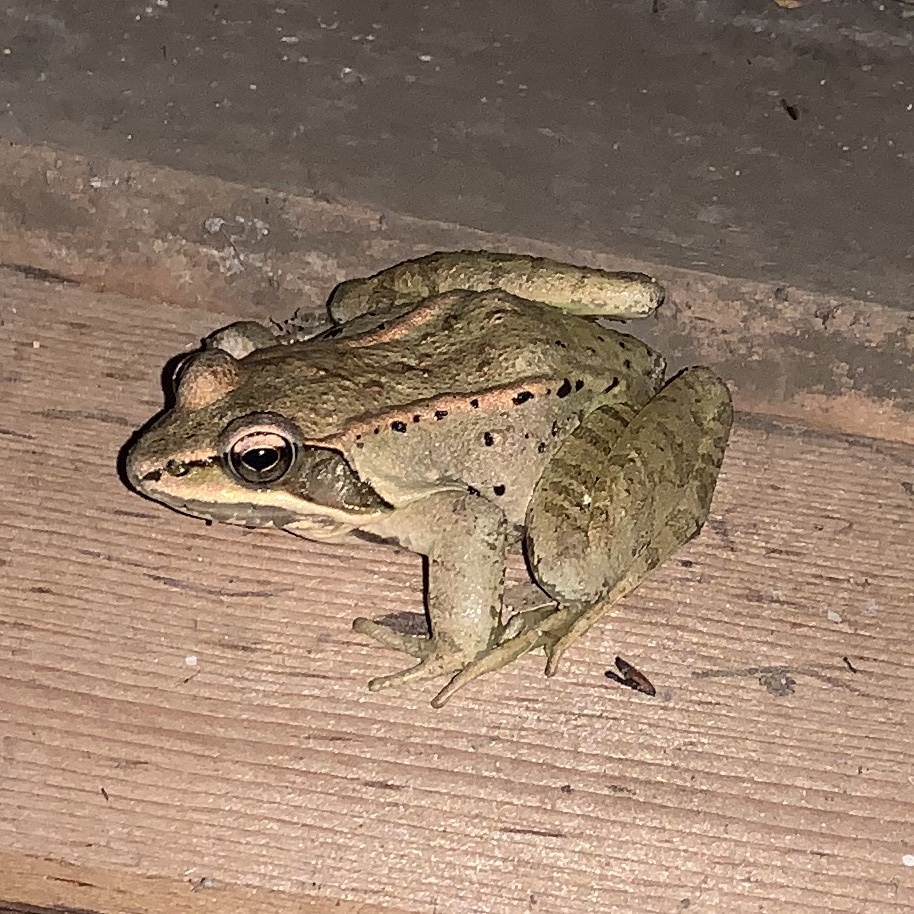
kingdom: Animalia
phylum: Chordata
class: Amphibia
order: Anura
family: Ranidae
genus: Lithobates
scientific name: Lithobates sylvaticus
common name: Wood frog
